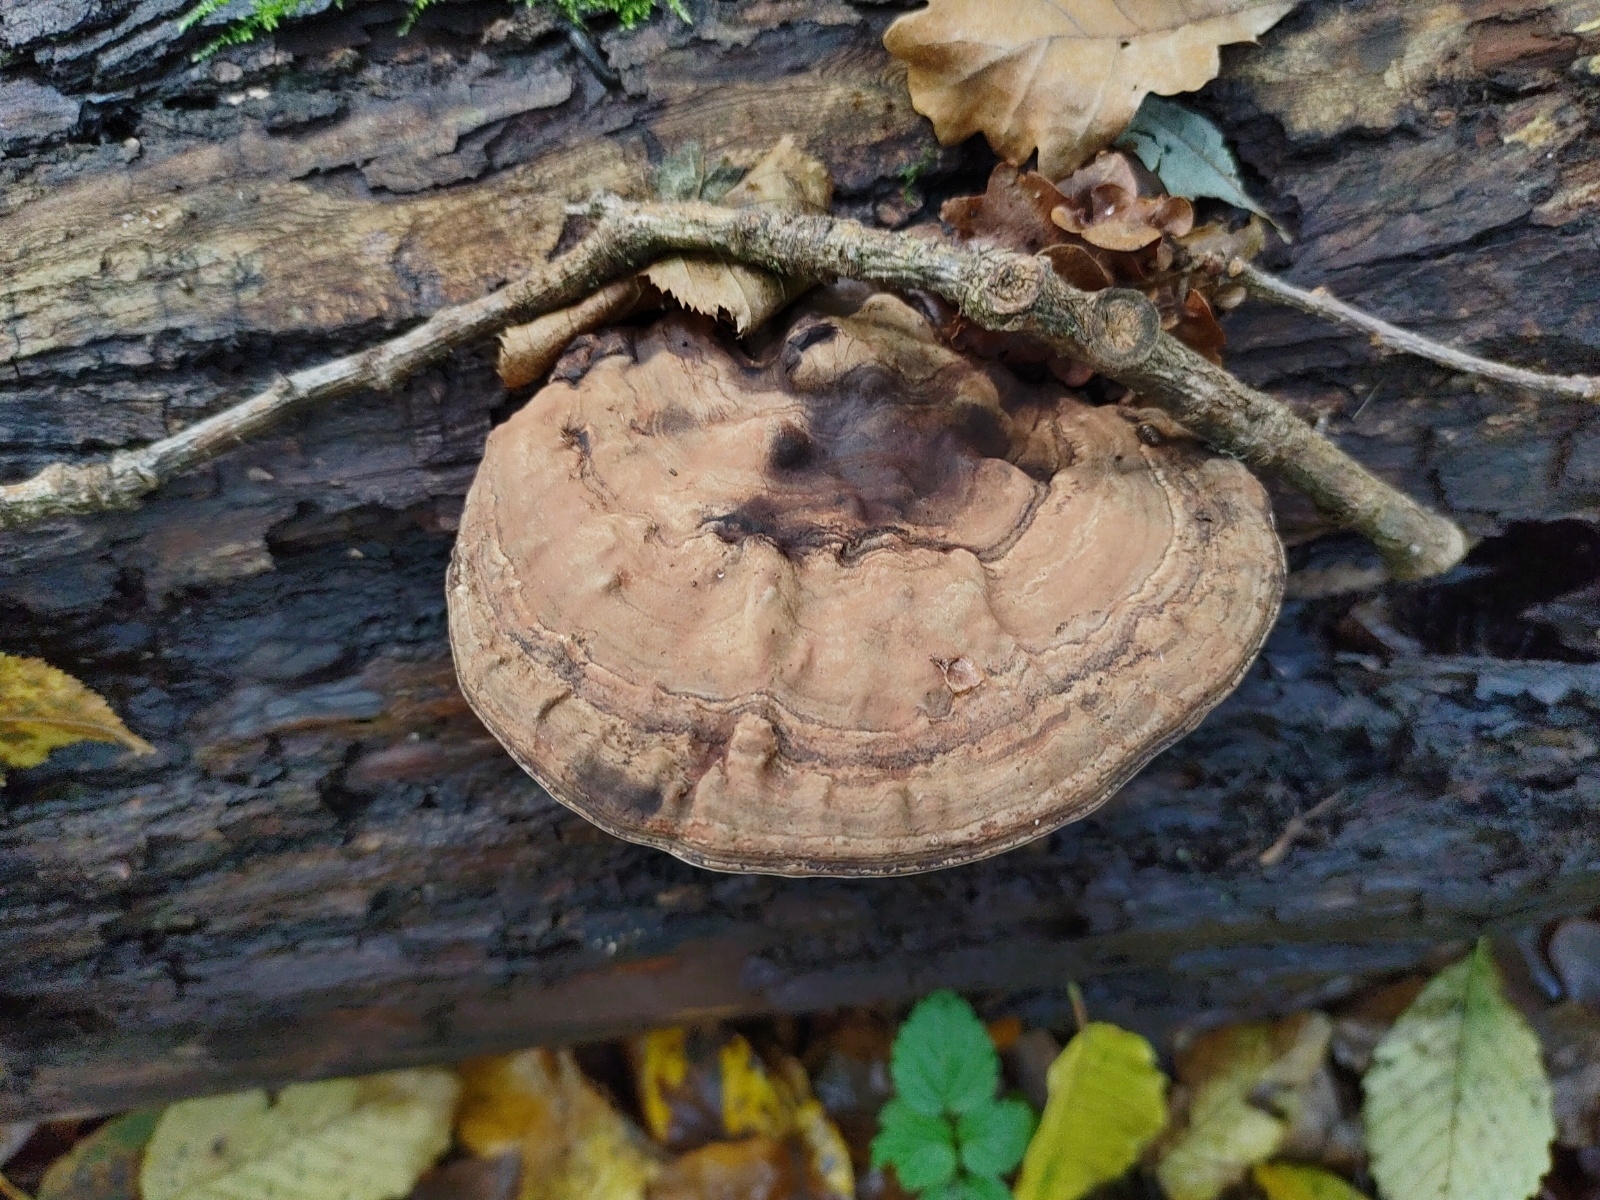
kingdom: Fungi
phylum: Basidiomycota
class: Agaricomycetes
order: Polyporales
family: Polyporaceae
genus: Ganoderma
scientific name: Ganoderma applanatum
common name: Artist's bracket
